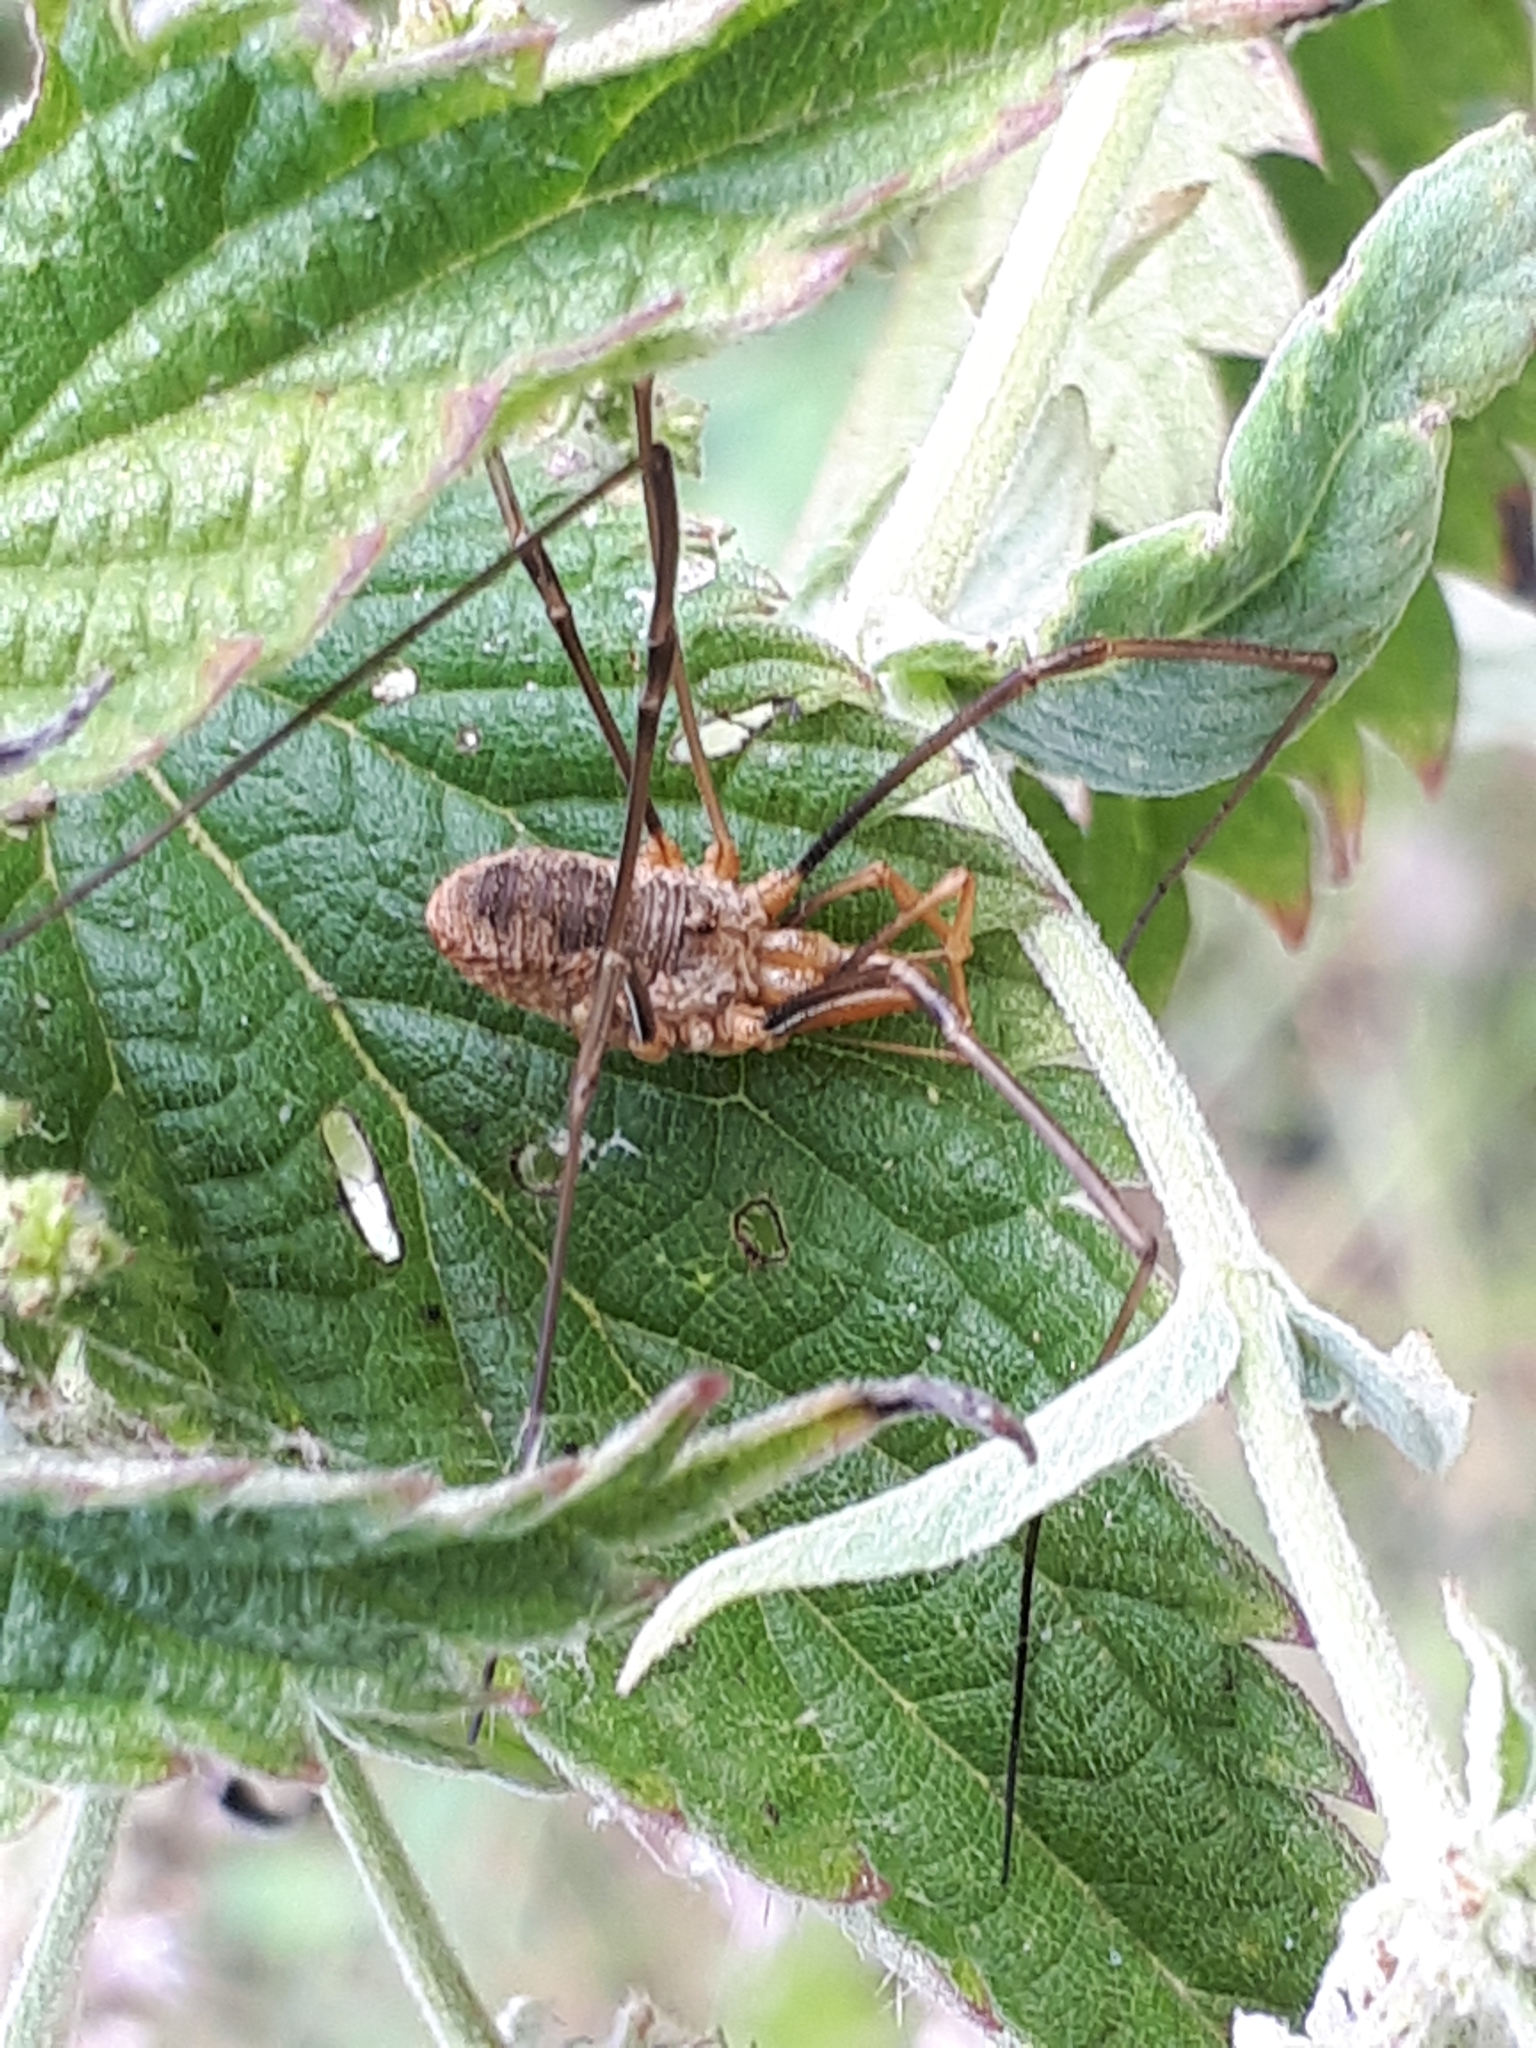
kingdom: Animalia
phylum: Arthropoda
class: Arachnida
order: Opiliones
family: Phalangiidae
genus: Phalangium
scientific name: Phalangium opilio
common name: Daddy longleg
